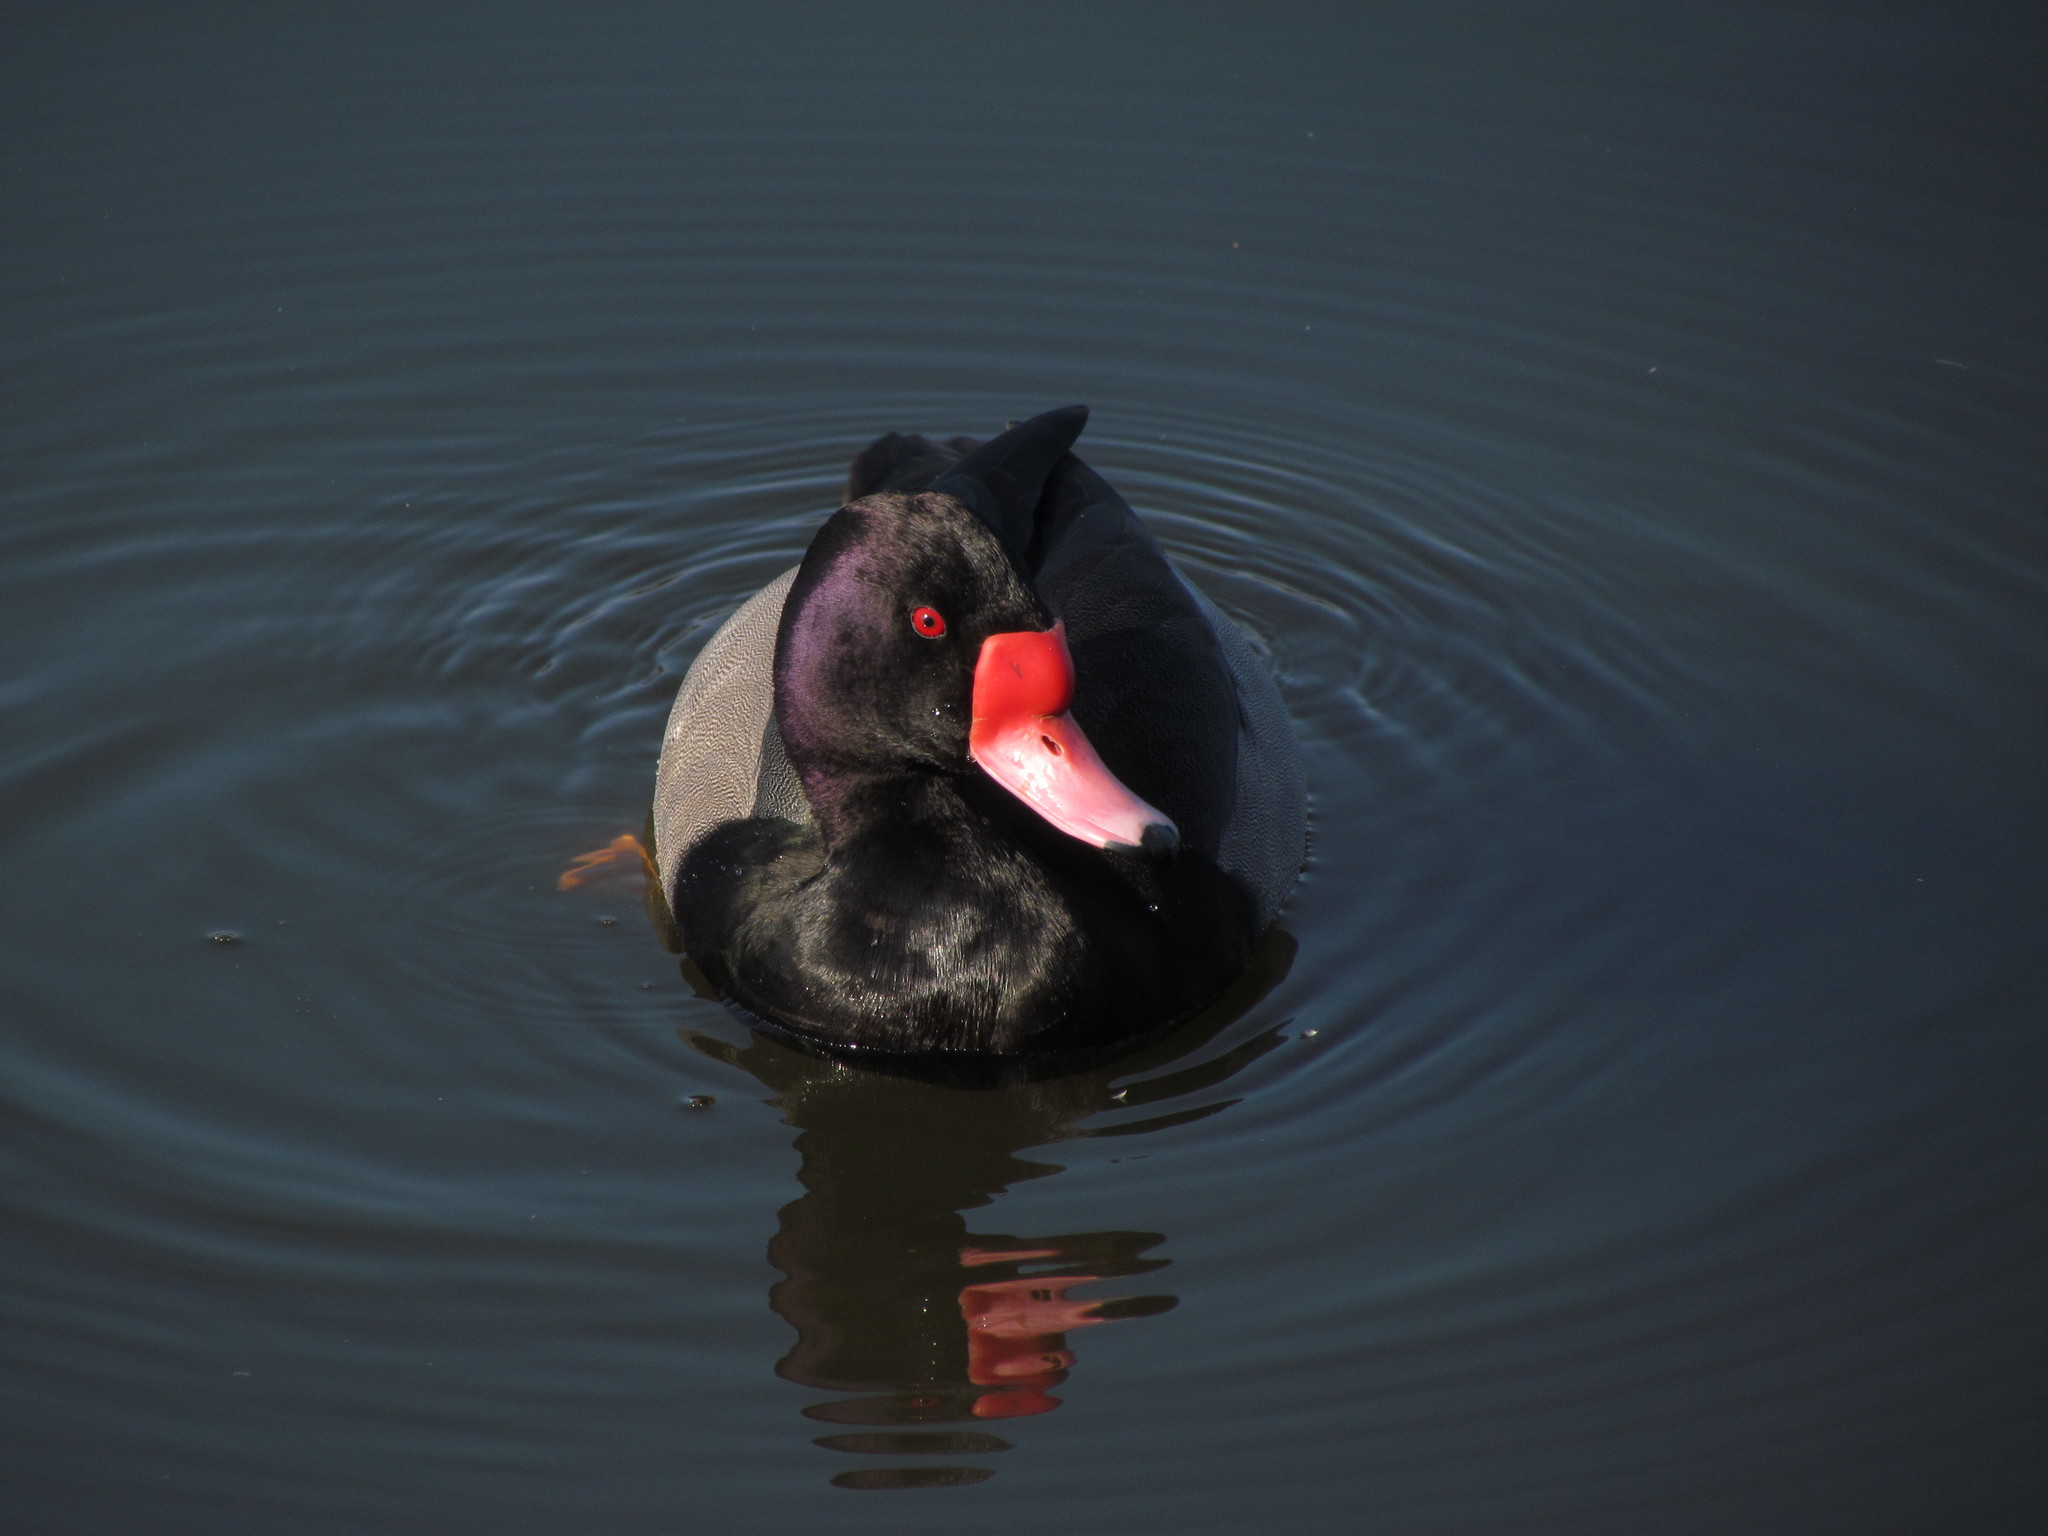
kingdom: Animalia
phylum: Chordata
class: Aves
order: Anseriformes
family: Anatidae
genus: Netta
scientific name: Netta peposaca
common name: Rosy-billed pochard
